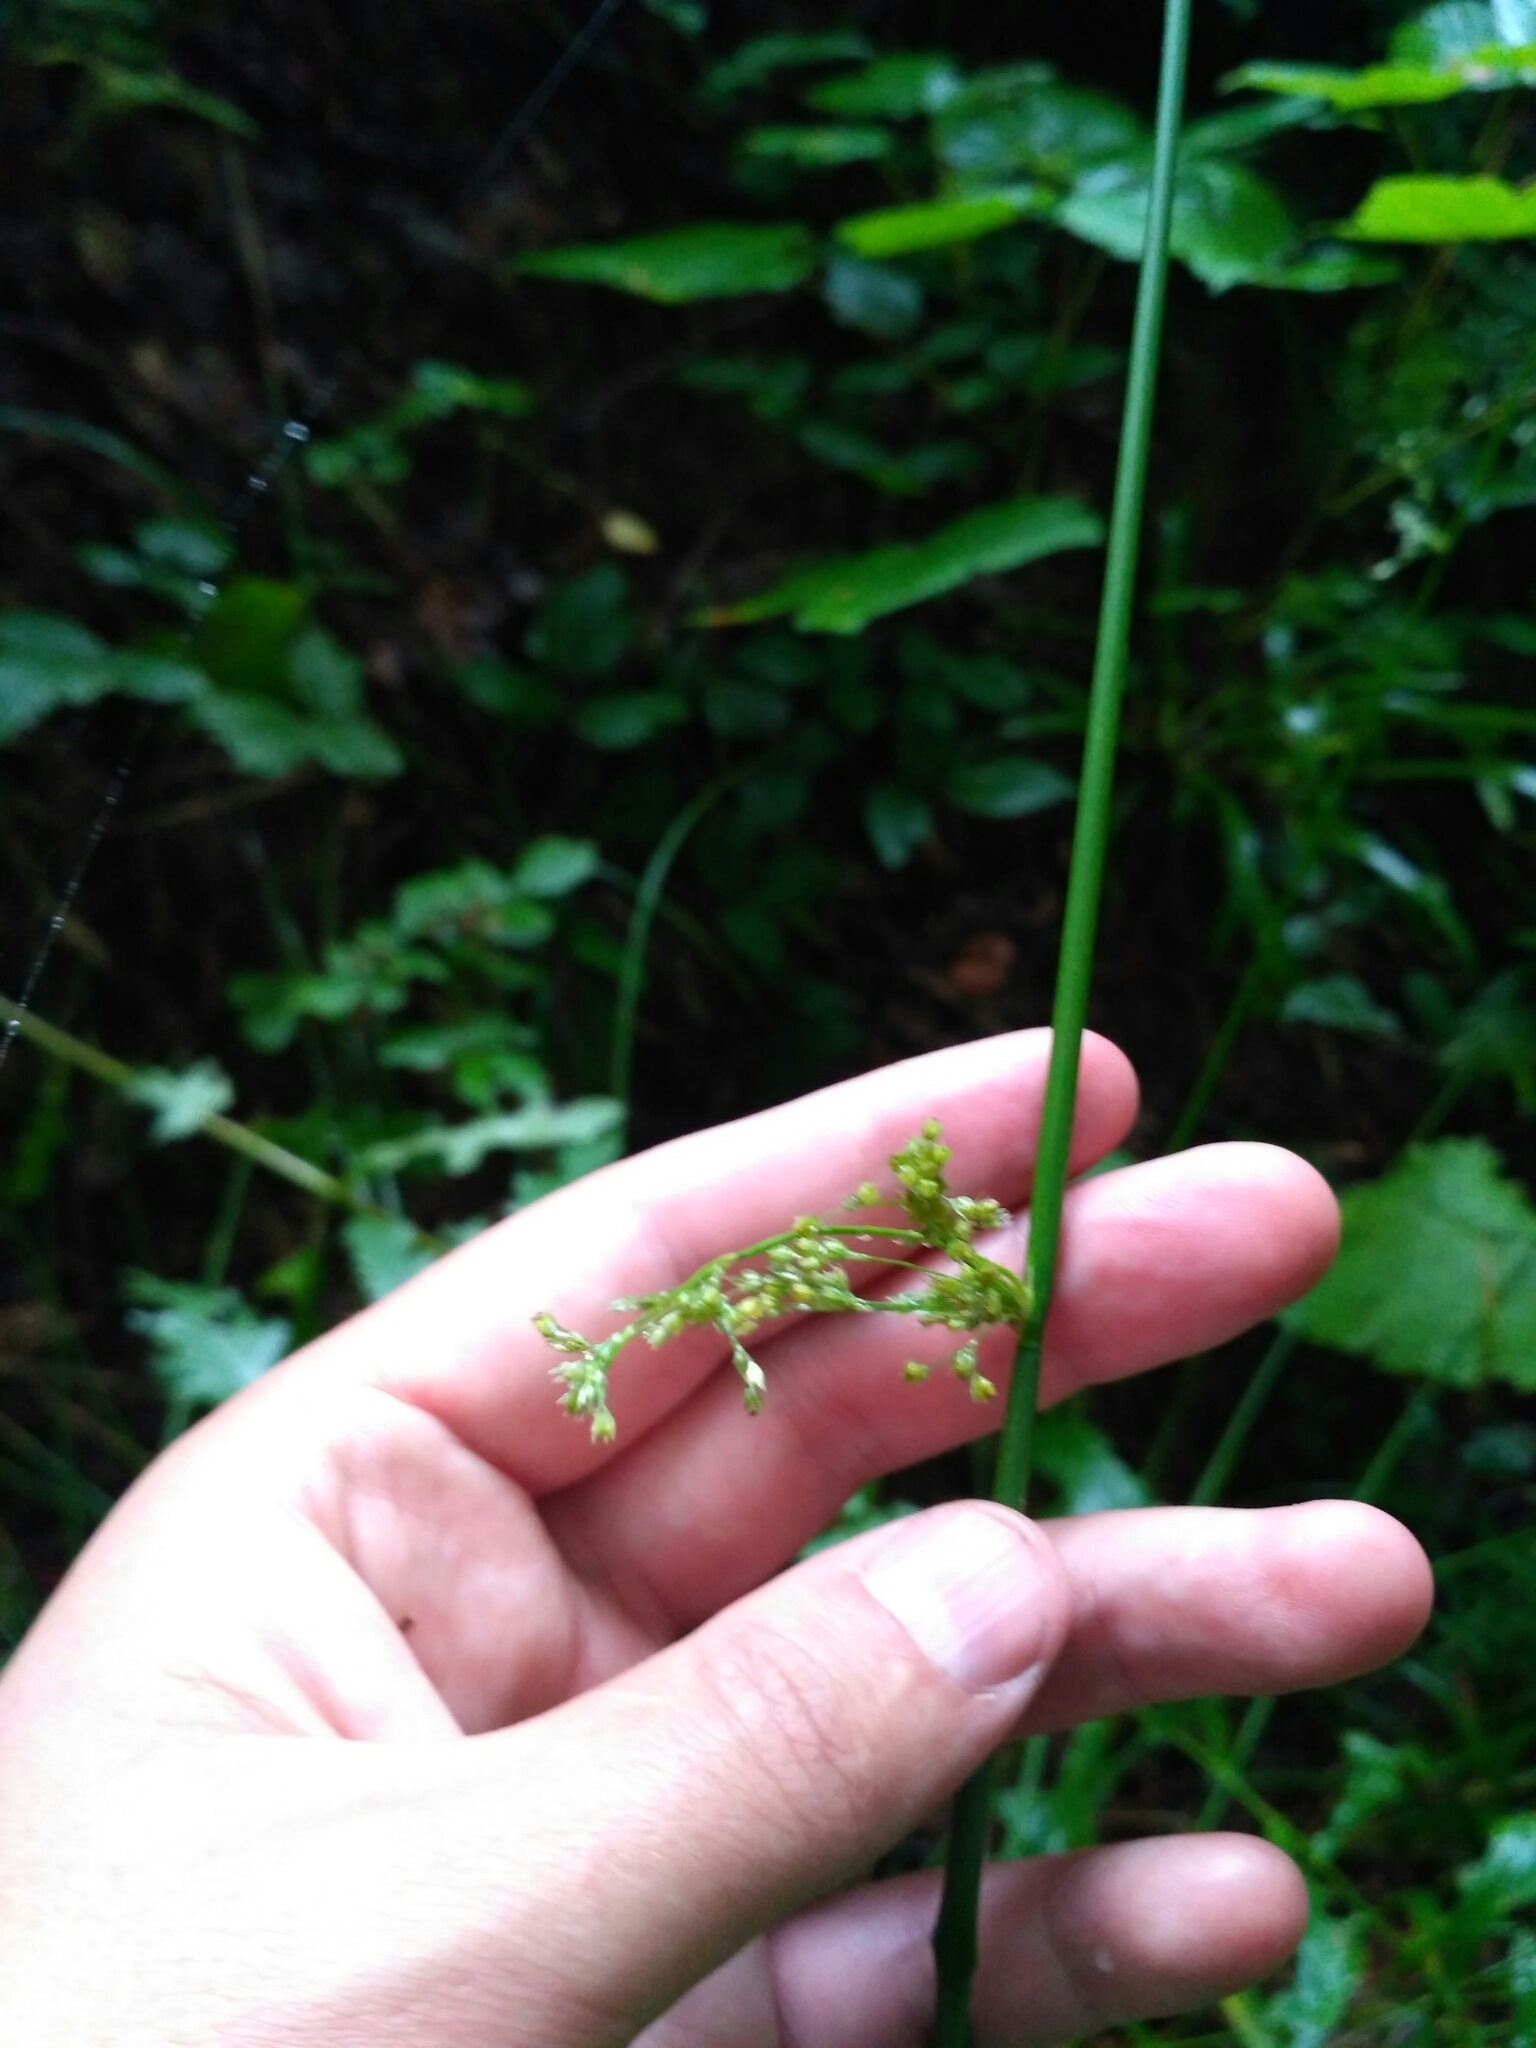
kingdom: Plantae
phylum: Tracheophyta
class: Liliopsida
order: Poales
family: Juncaceae
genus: Juncus
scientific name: Juncus effusus
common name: Soft rush
